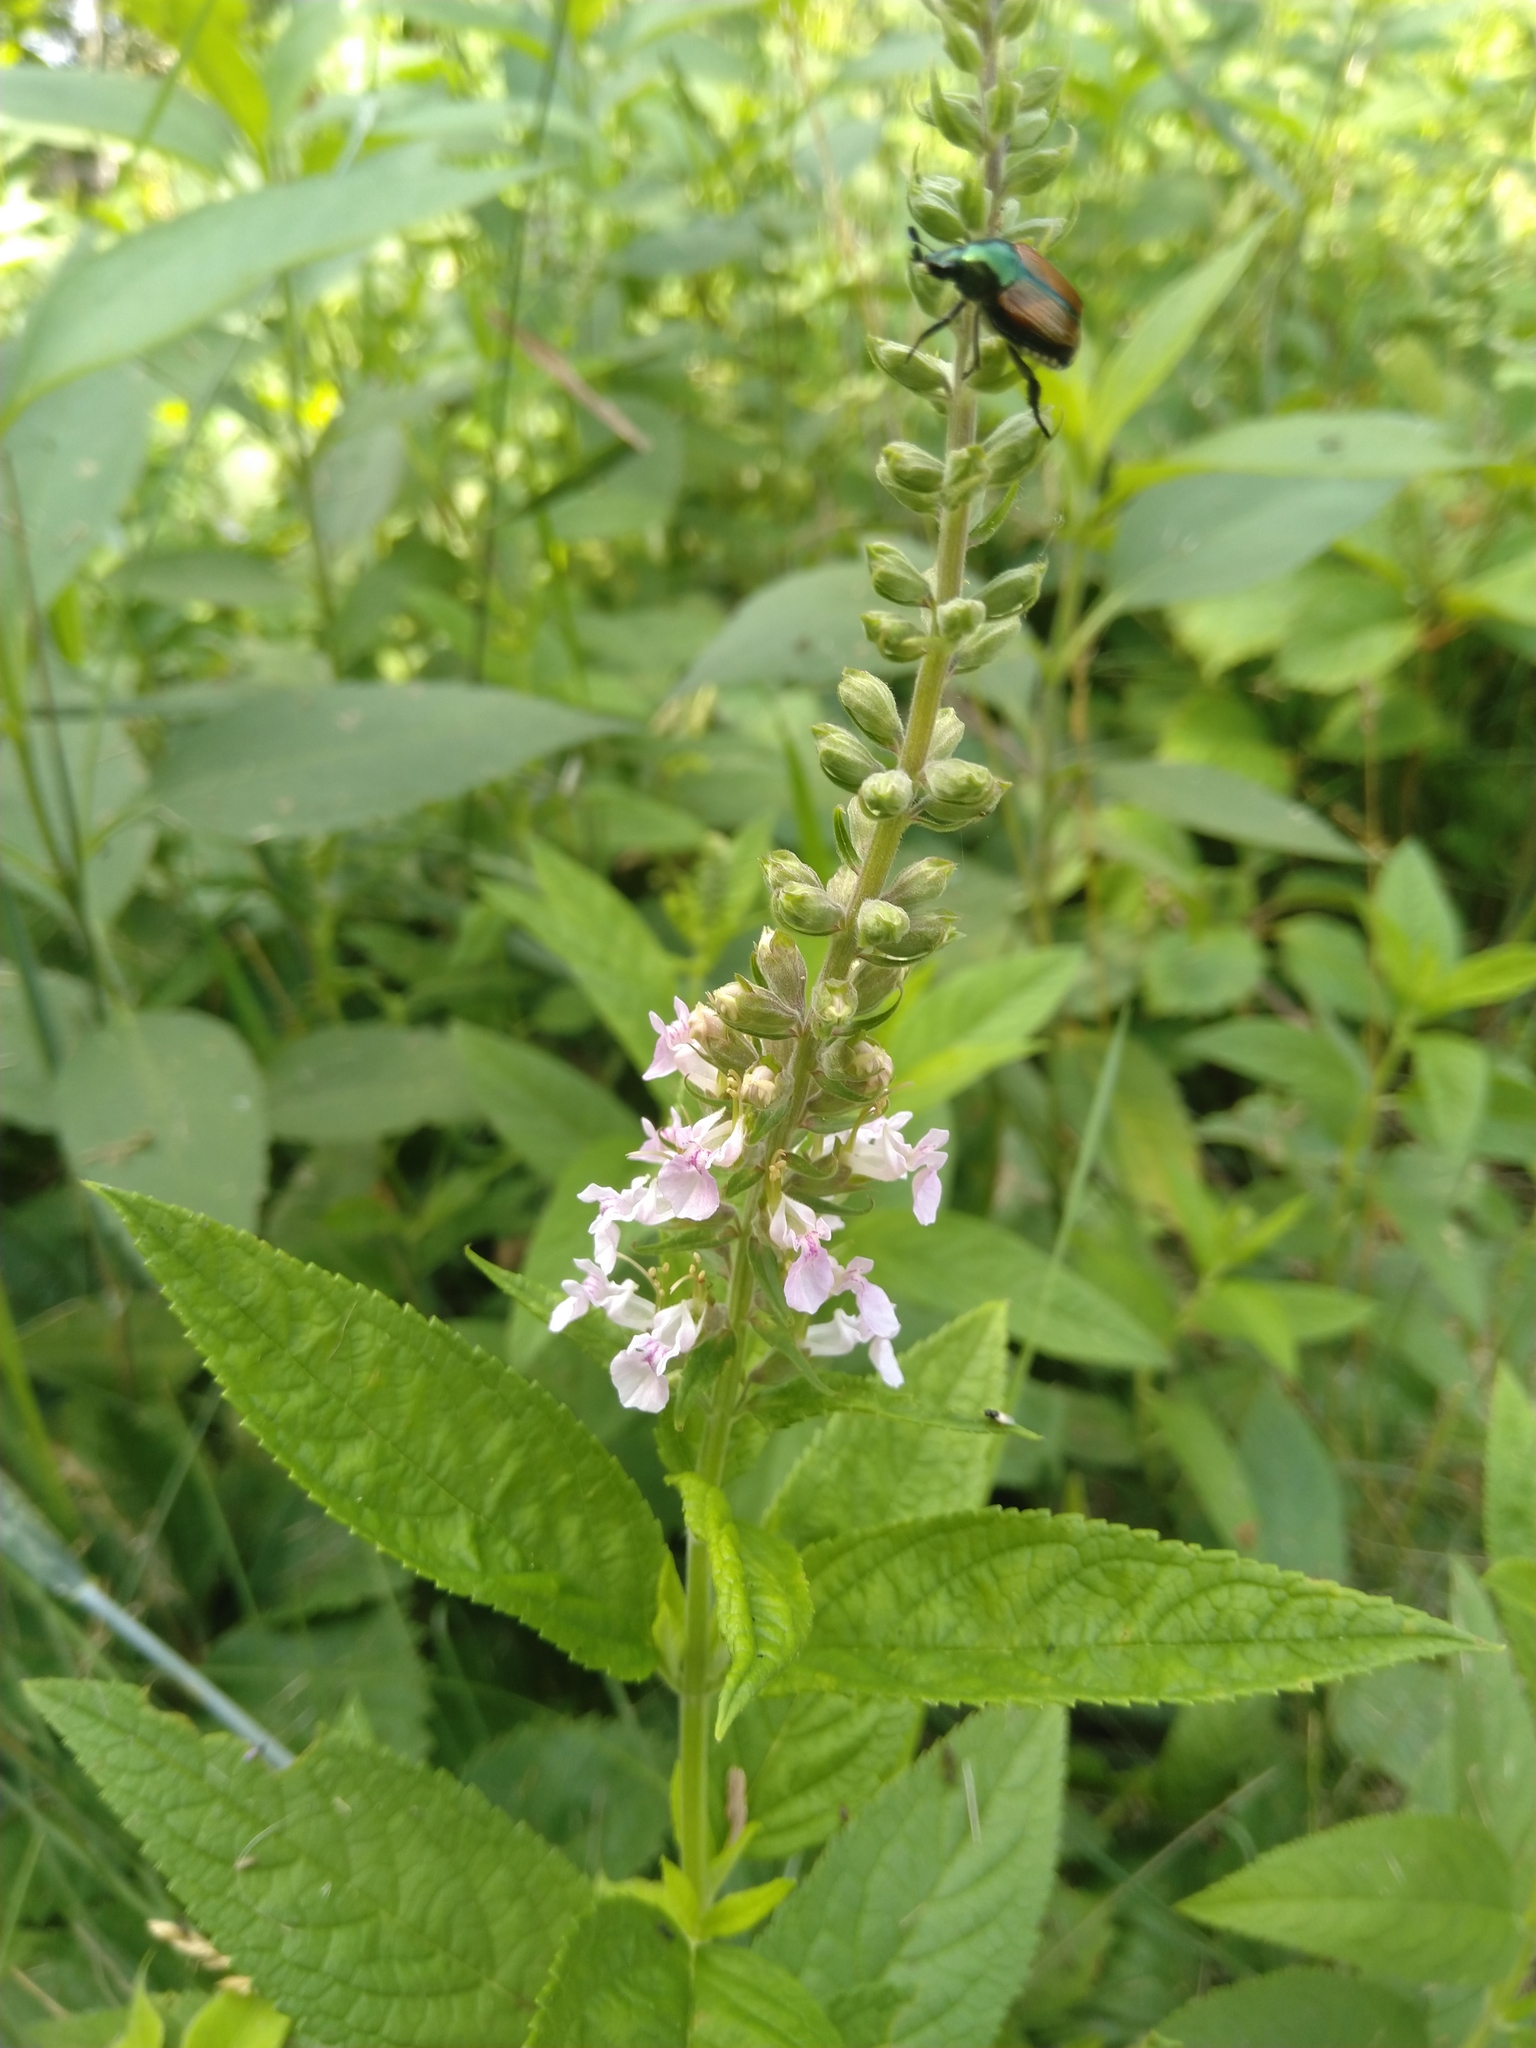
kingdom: Plantae
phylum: Tracheophyta
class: Magnoliopsida
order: Lamiales
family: Lamiaceae
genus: Teucrium
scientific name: Teucrium canadense
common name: American germander
